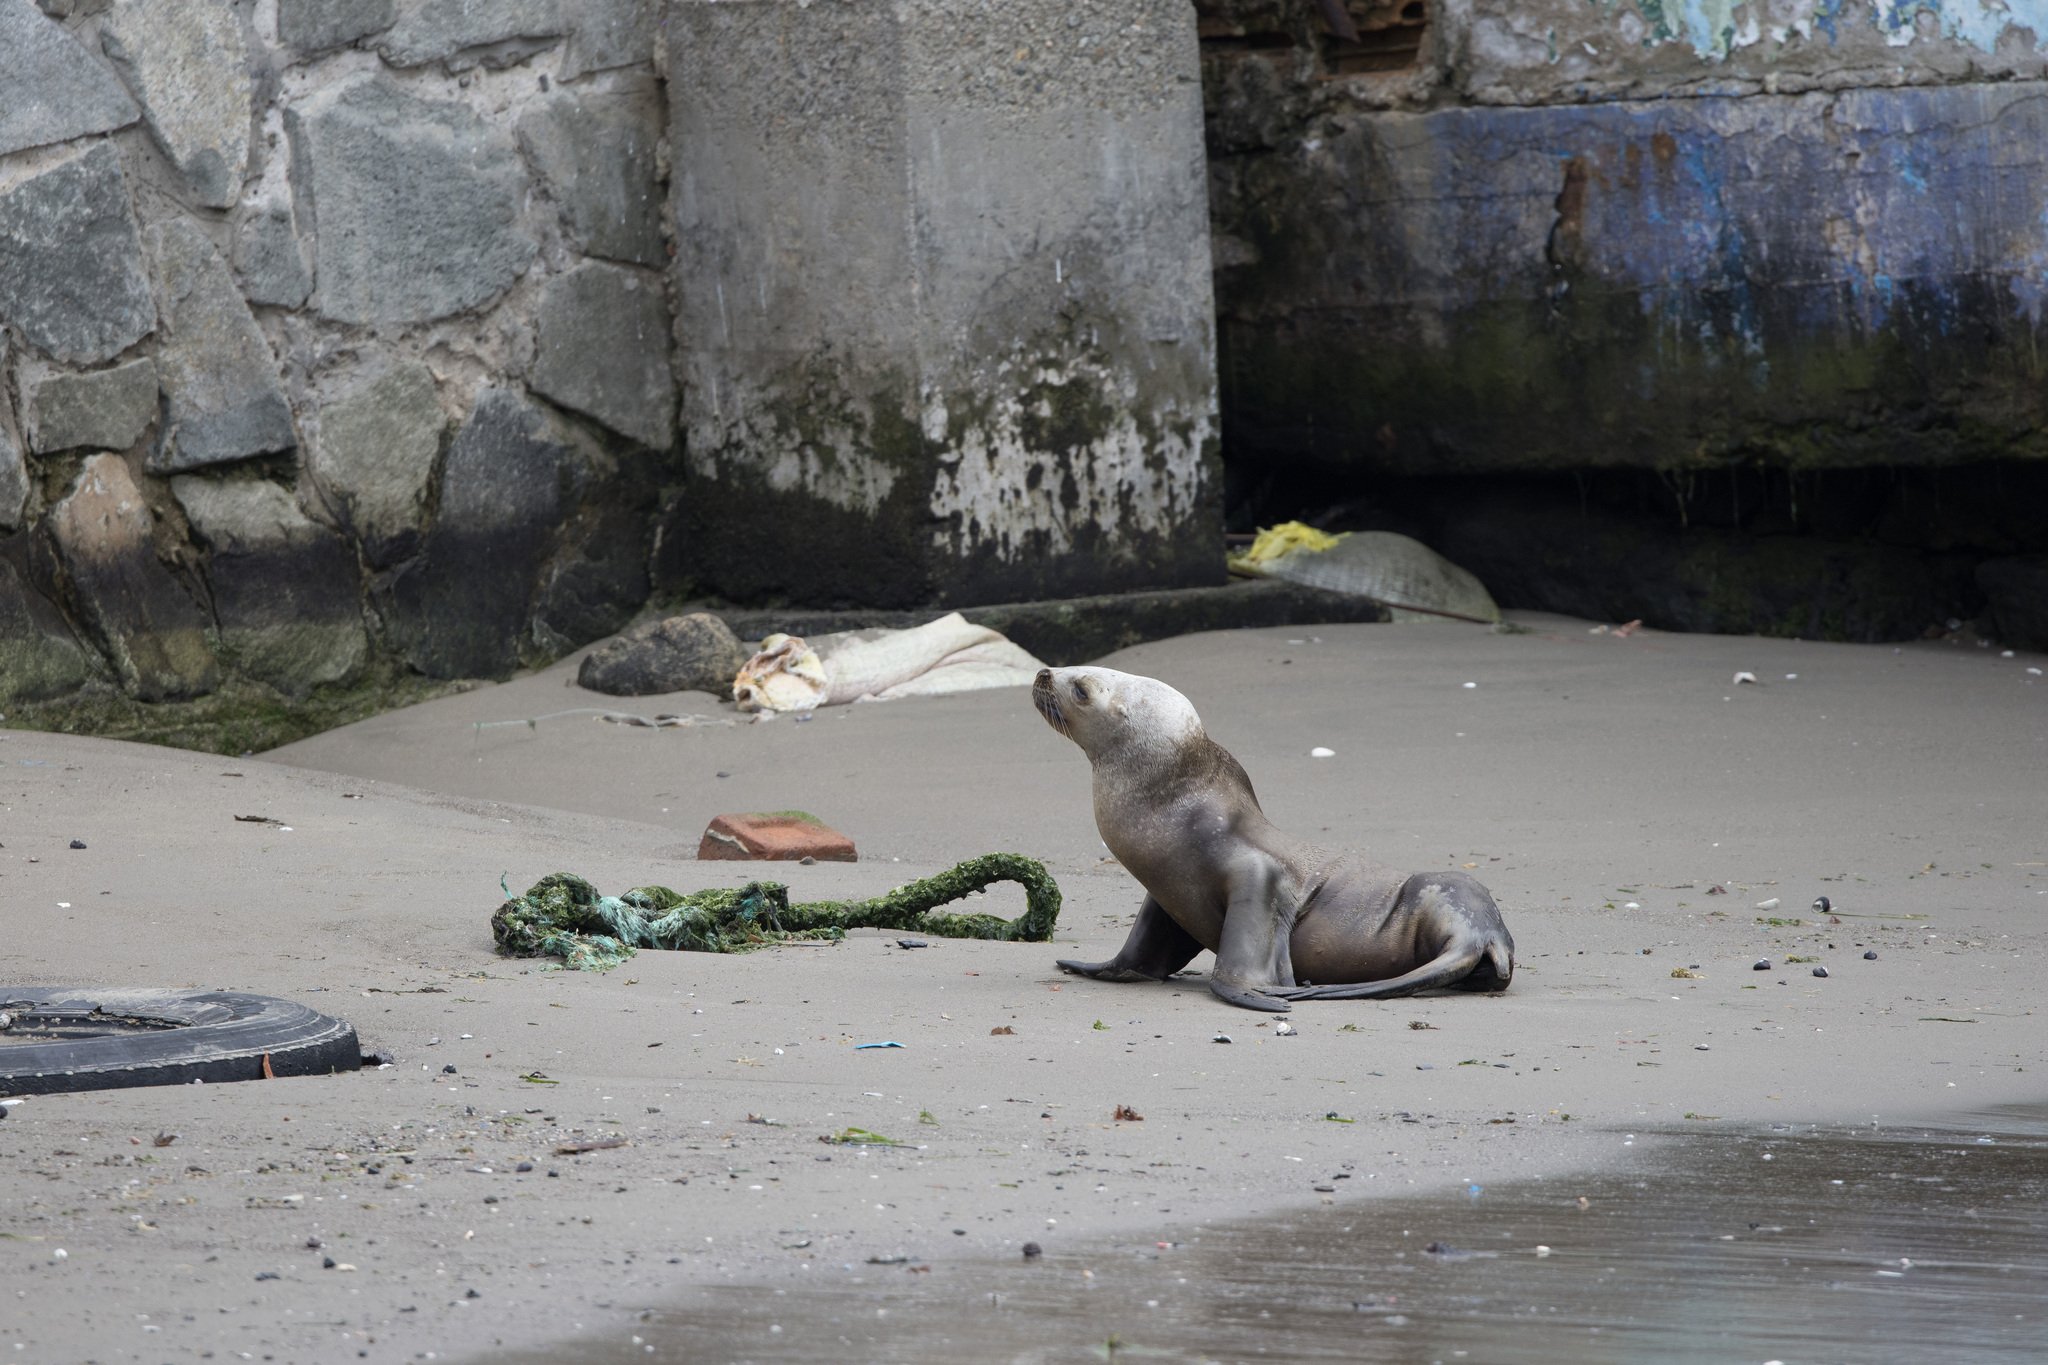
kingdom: Animalia
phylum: Chordata
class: Mammalia
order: Carnivora
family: Otariidae
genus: Otaria
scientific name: Otaria byronia
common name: South american sea lion
